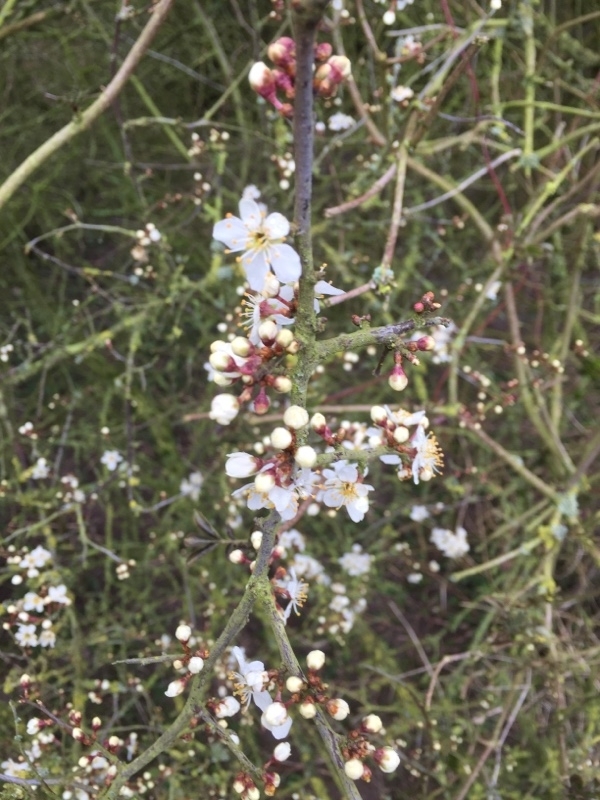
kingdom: Plantae
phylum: Tracheophyta
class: Magnoliopsida
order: Rosales
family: Rosaceae
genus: Prunus
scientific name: Prunus spinosa
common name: Blackthorn
